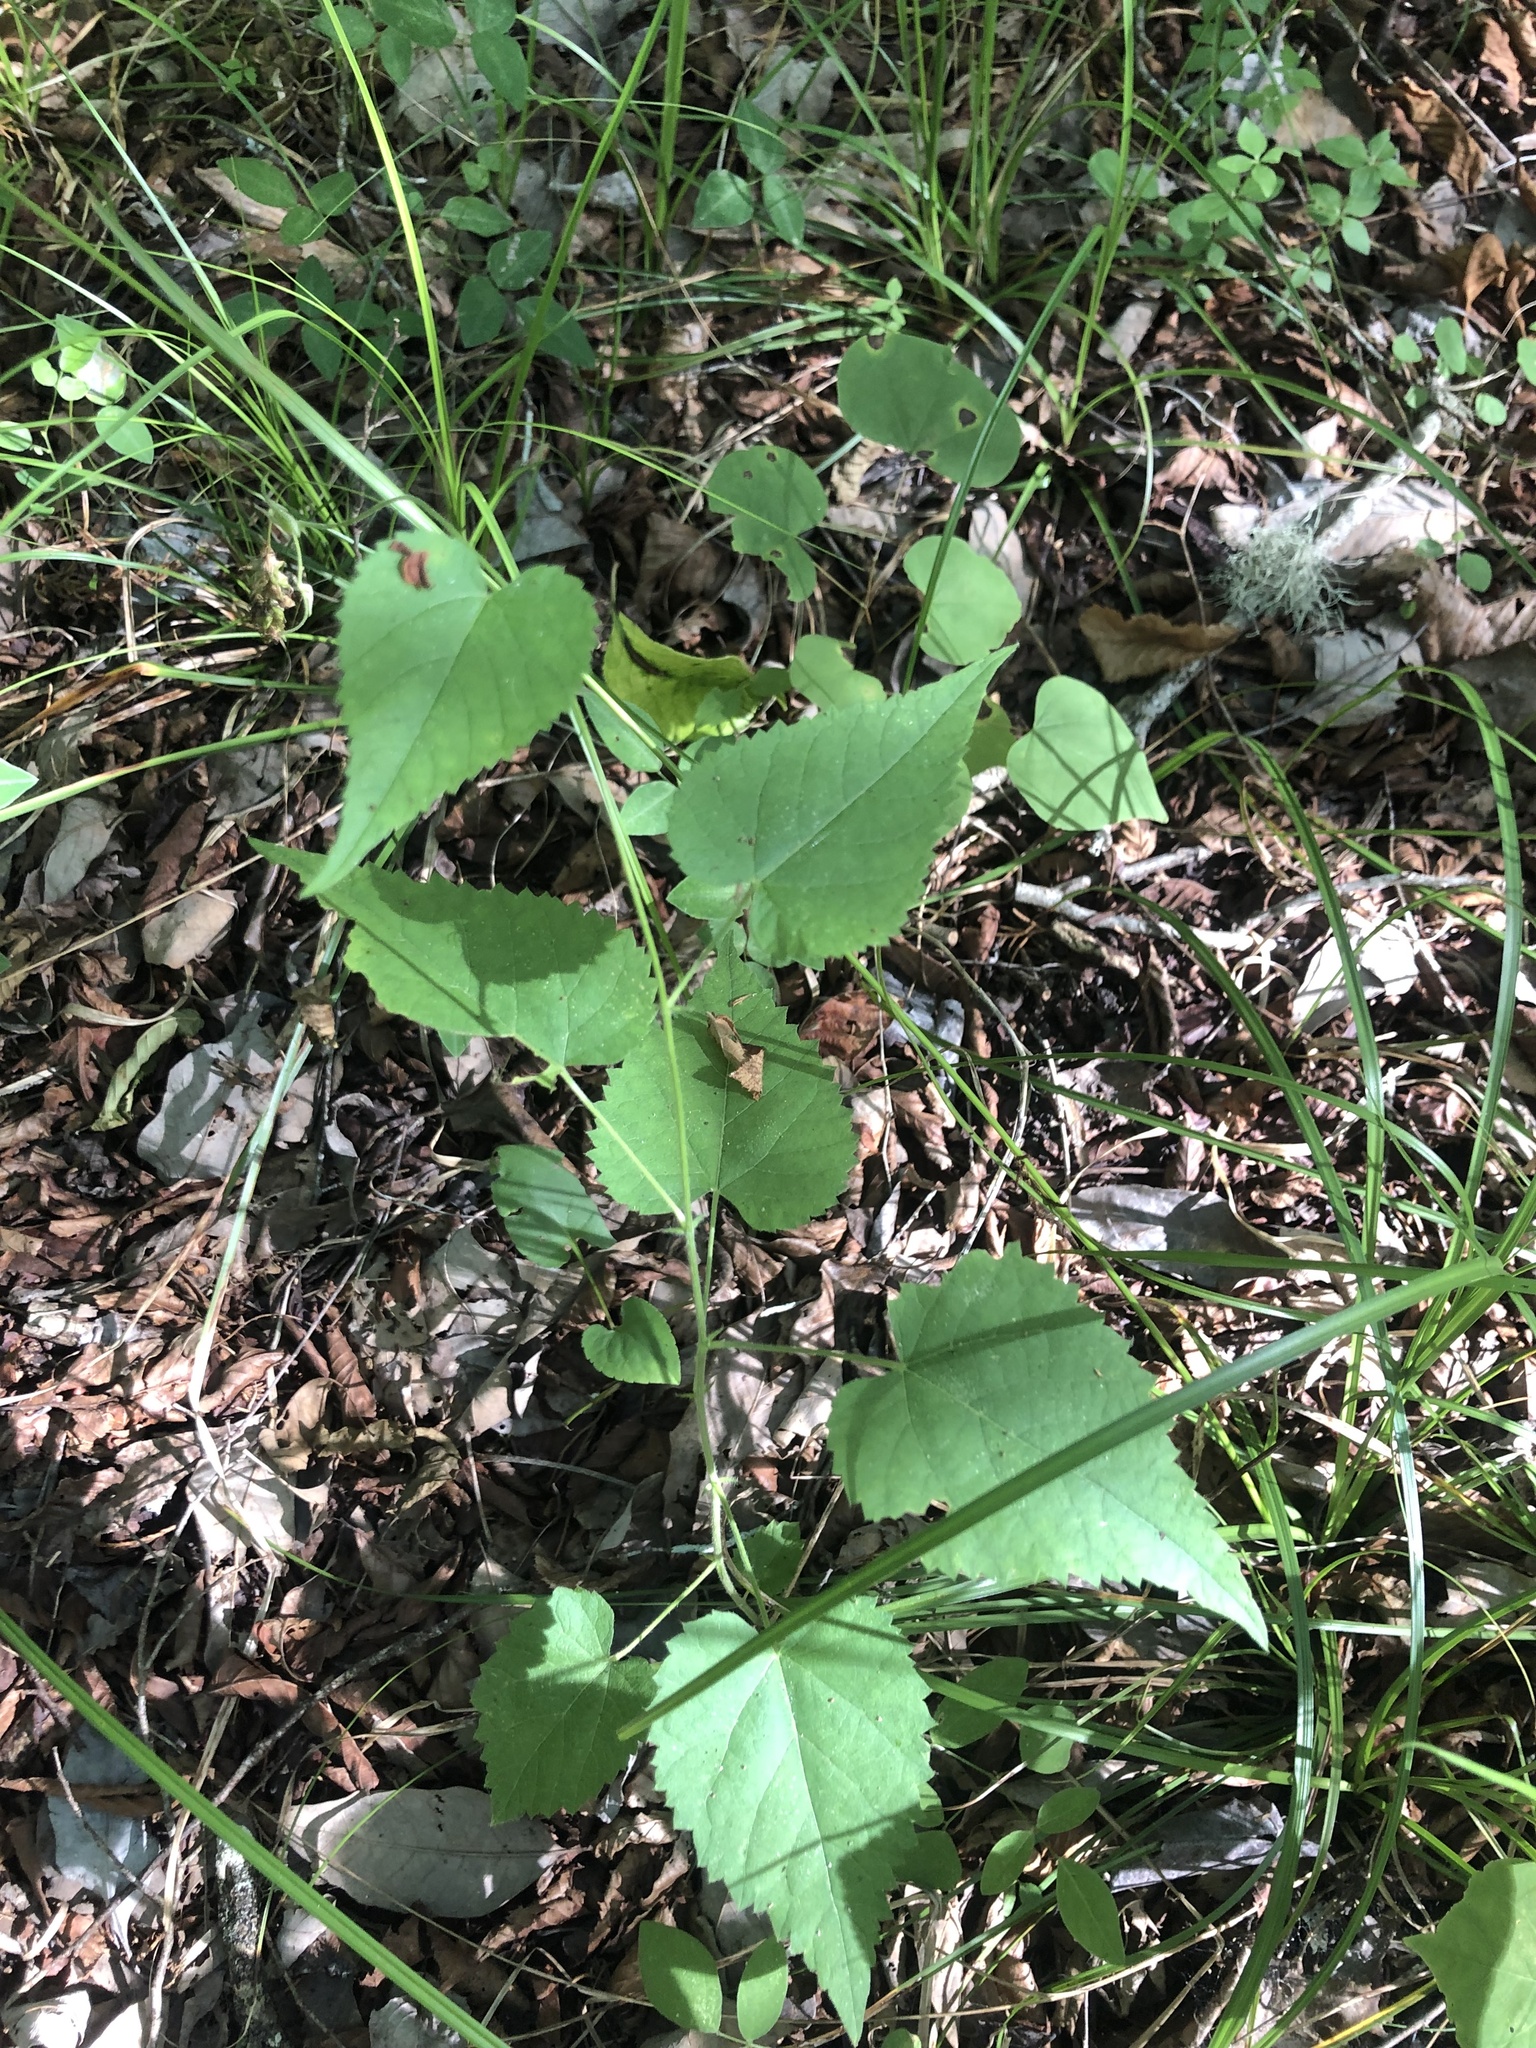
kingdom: Plantae
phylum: Tracheophyta
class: Magnoliopsida
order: Malpighiales
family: Euphorbiaceae
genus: Tragia
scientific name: Tragia cordata
